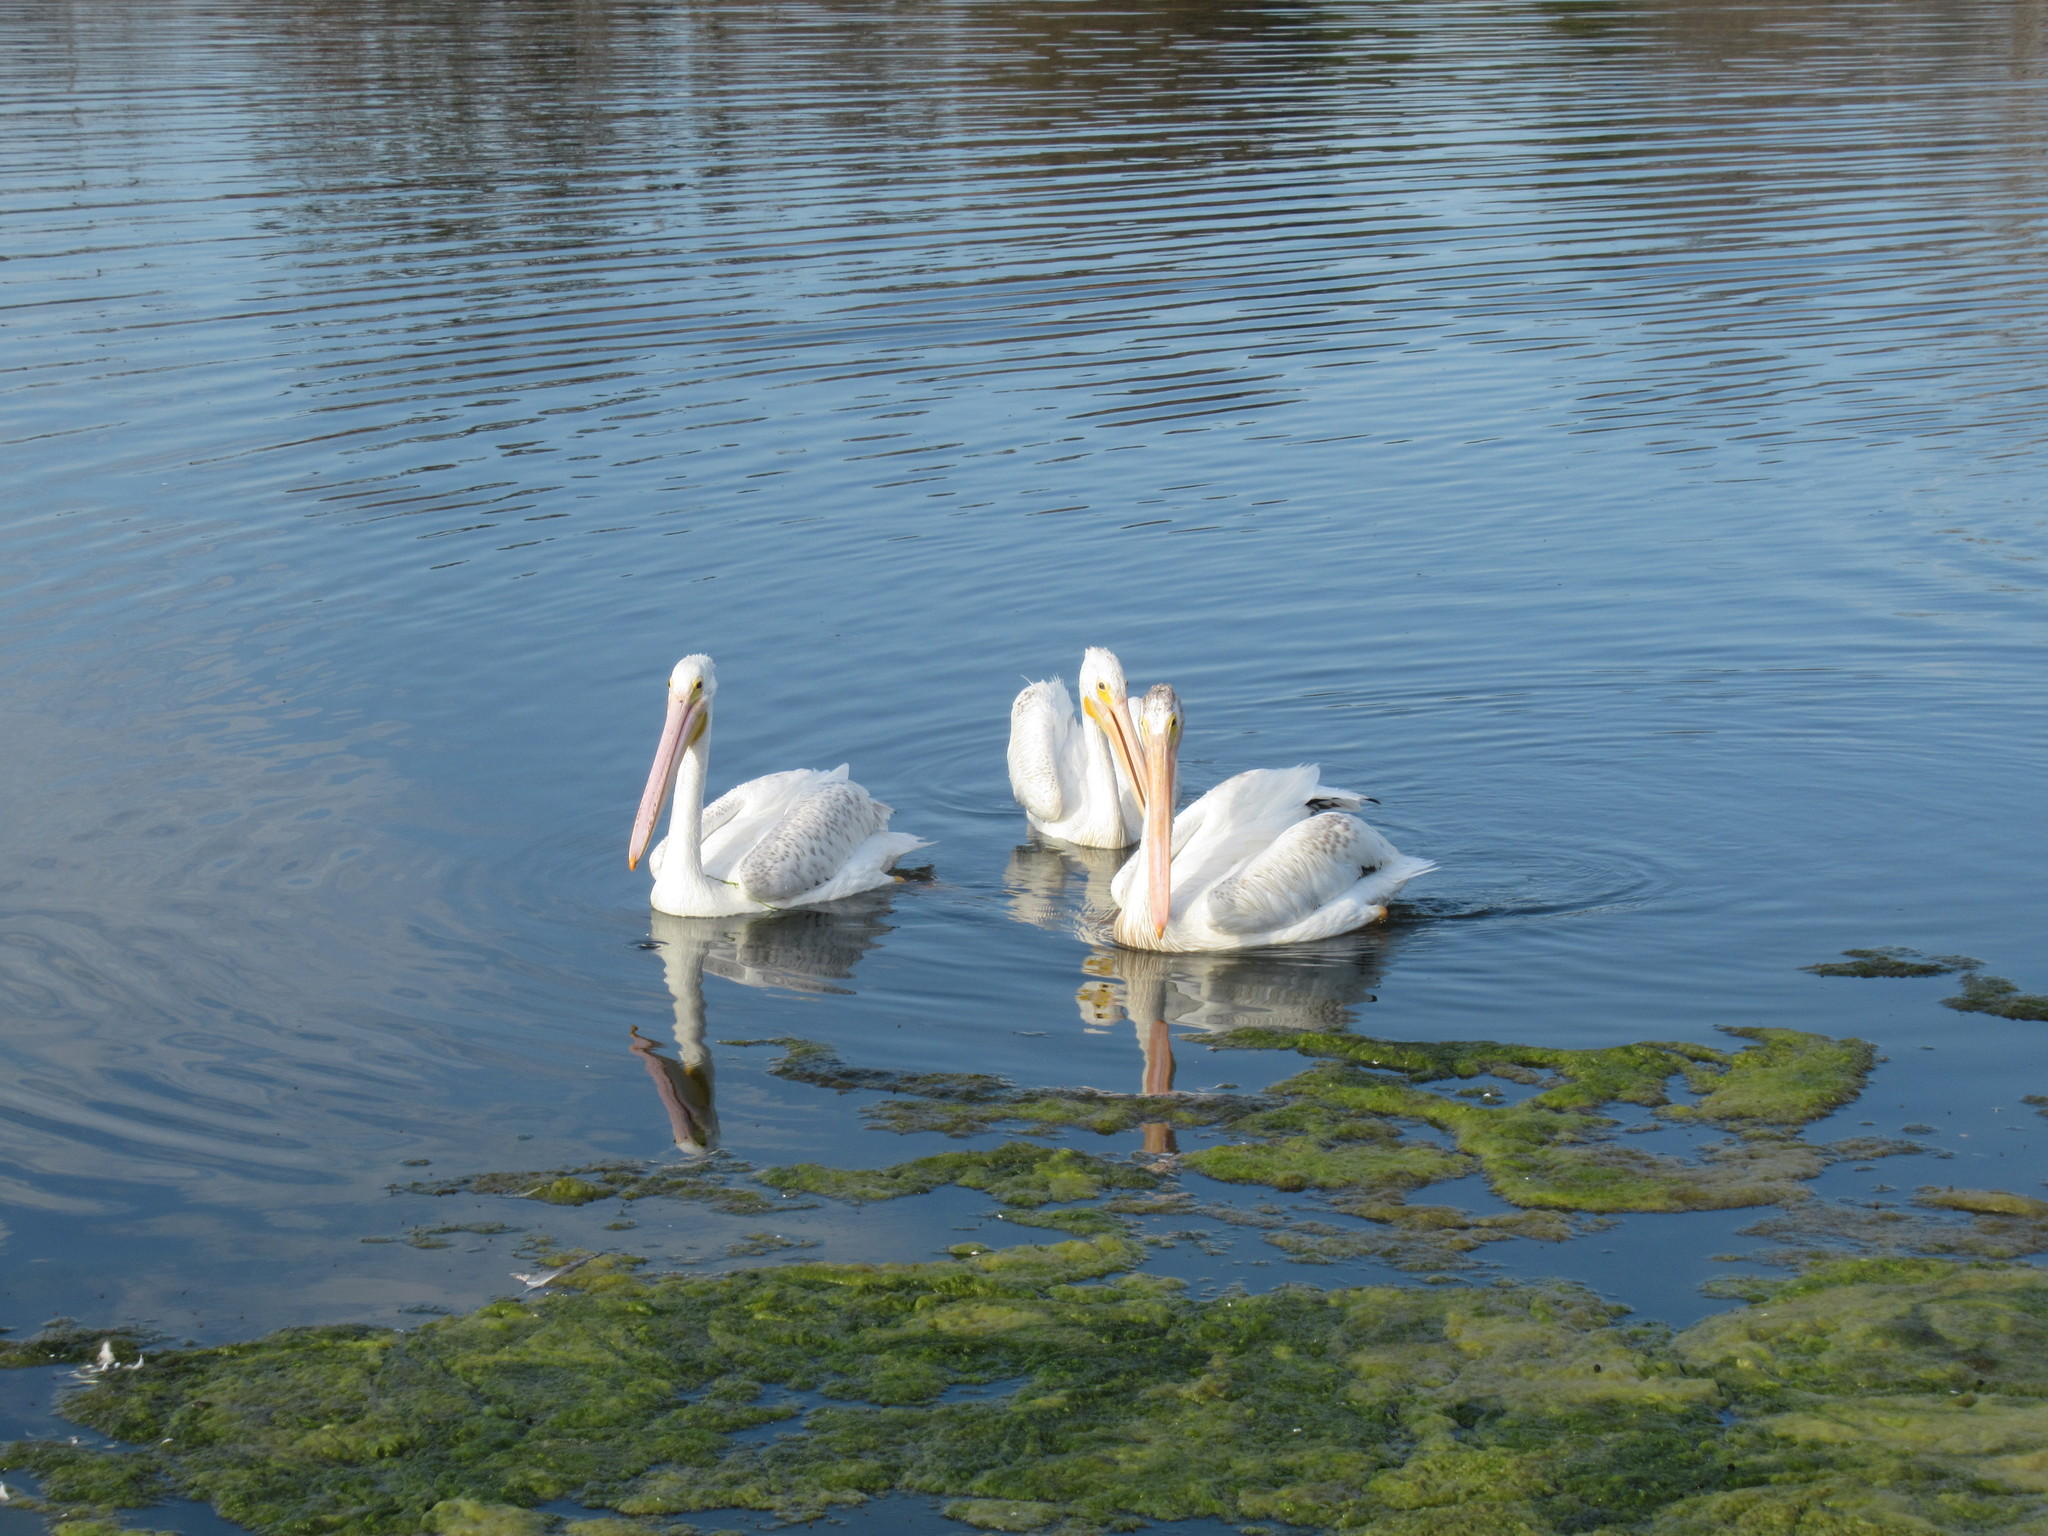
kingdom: Animalia
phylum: Chordata
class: Aves
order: Pelecaniformes
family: Pelecanidae
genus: Pelecanus
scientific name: Pelecanus erythrorhynchos
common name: American white pelican
